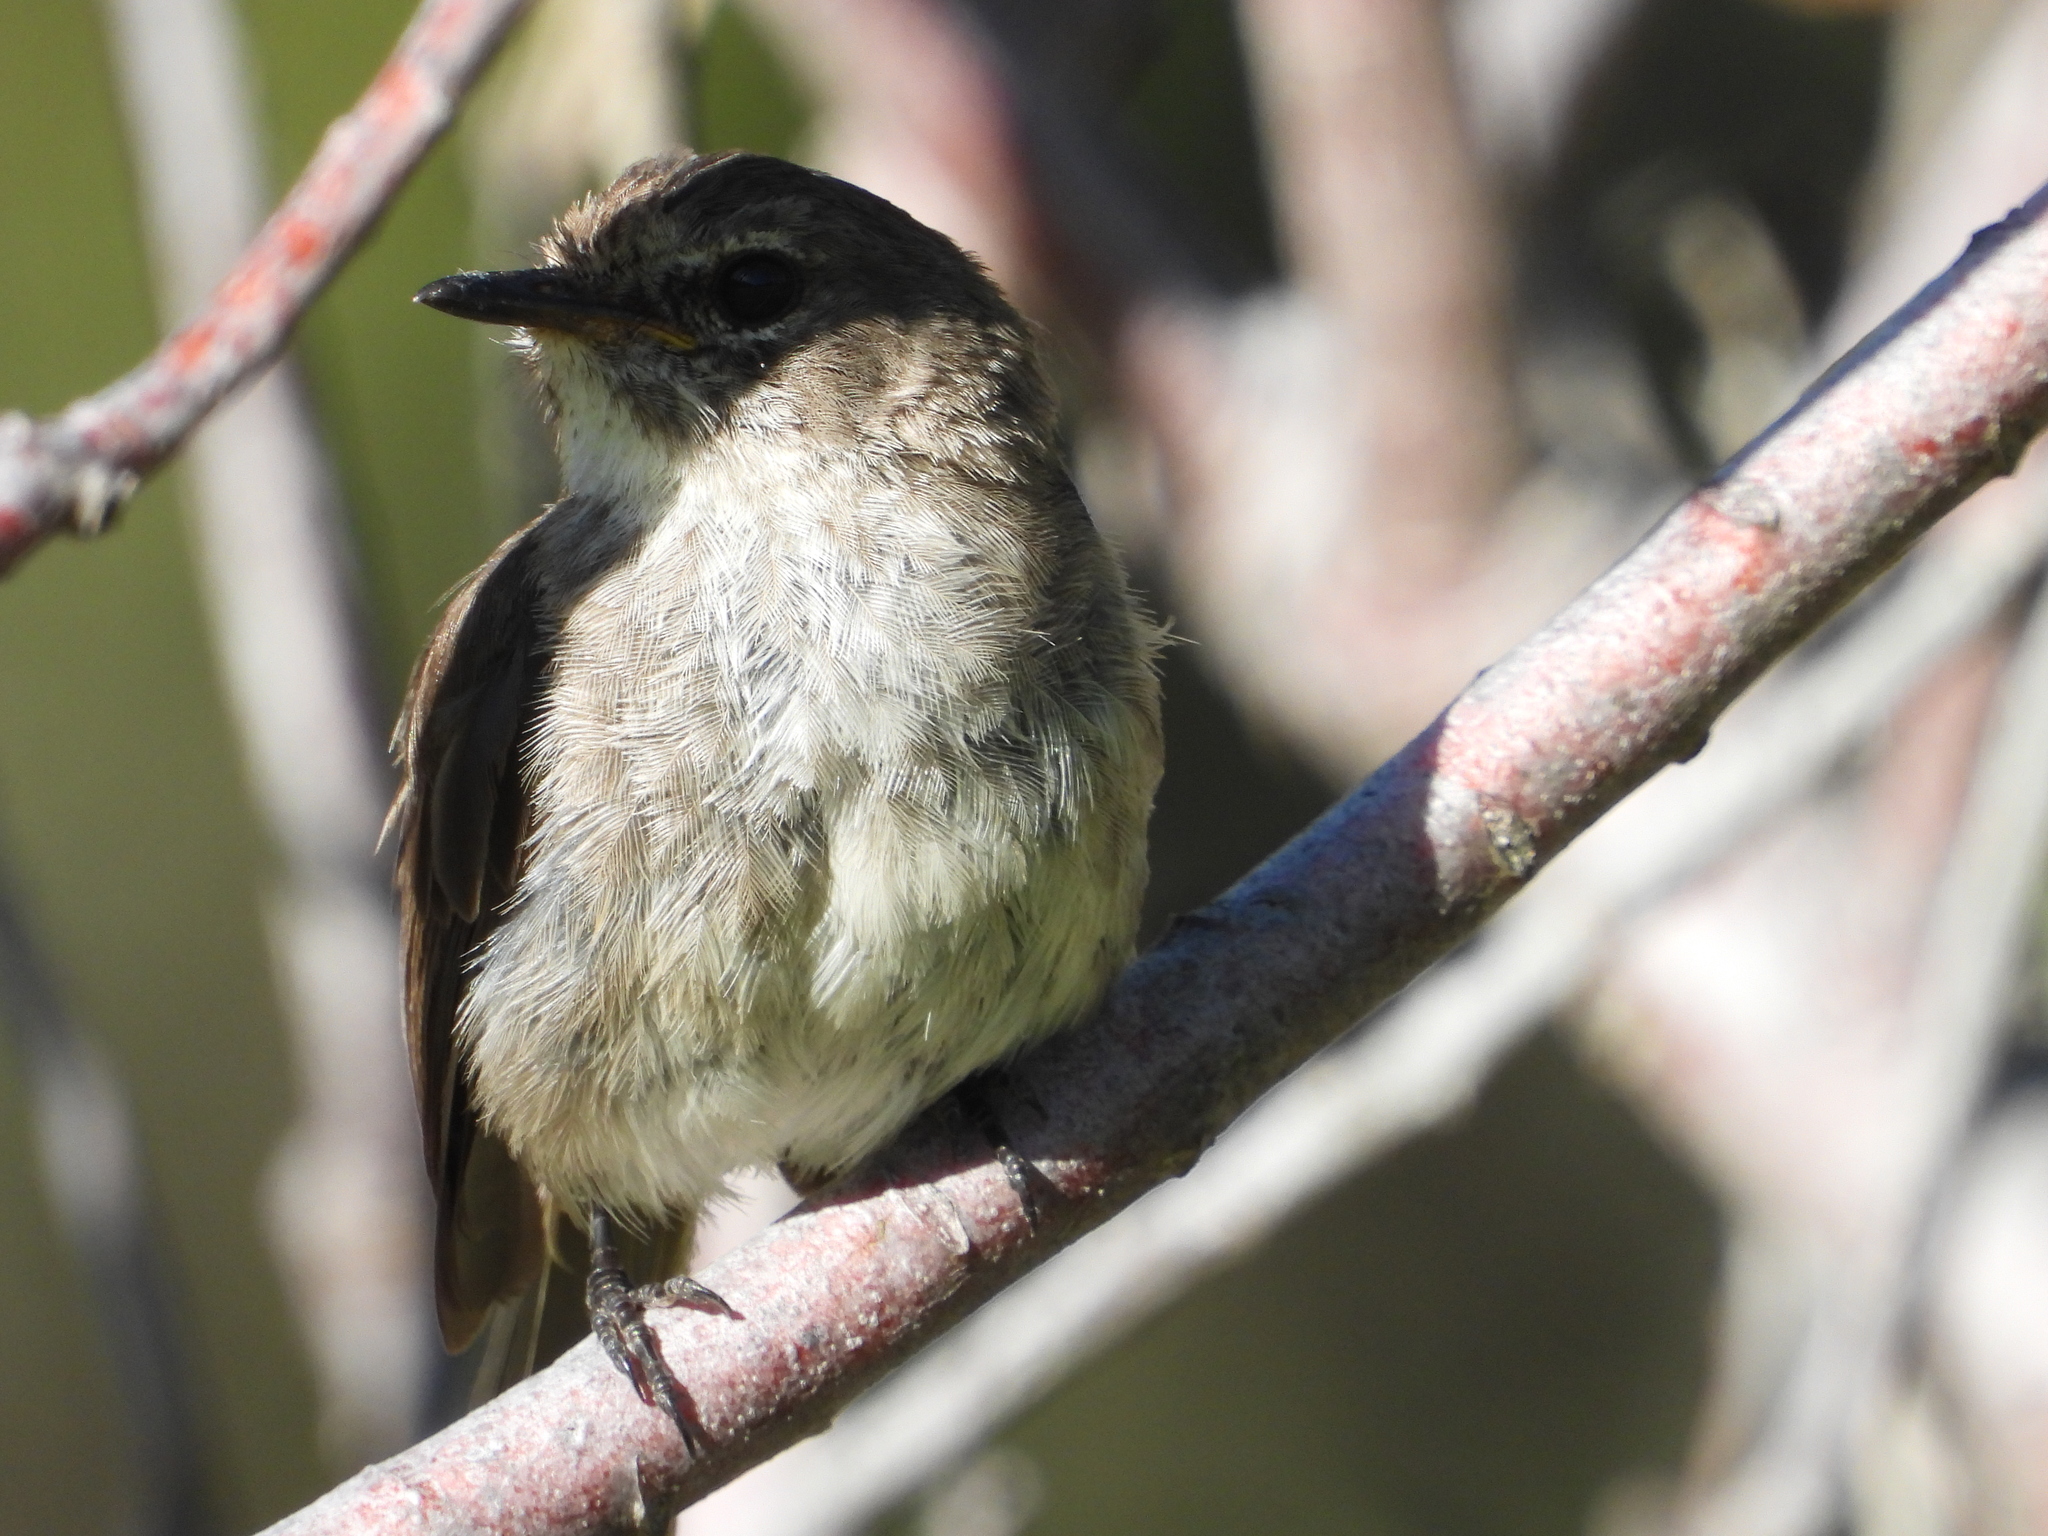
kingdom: Animalia
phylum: Chordata
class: Aves
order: Passeriformes
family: Muscicapidae
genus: Muscicapa
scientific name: Muscicapa adusta
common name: African dusky flycatcher
